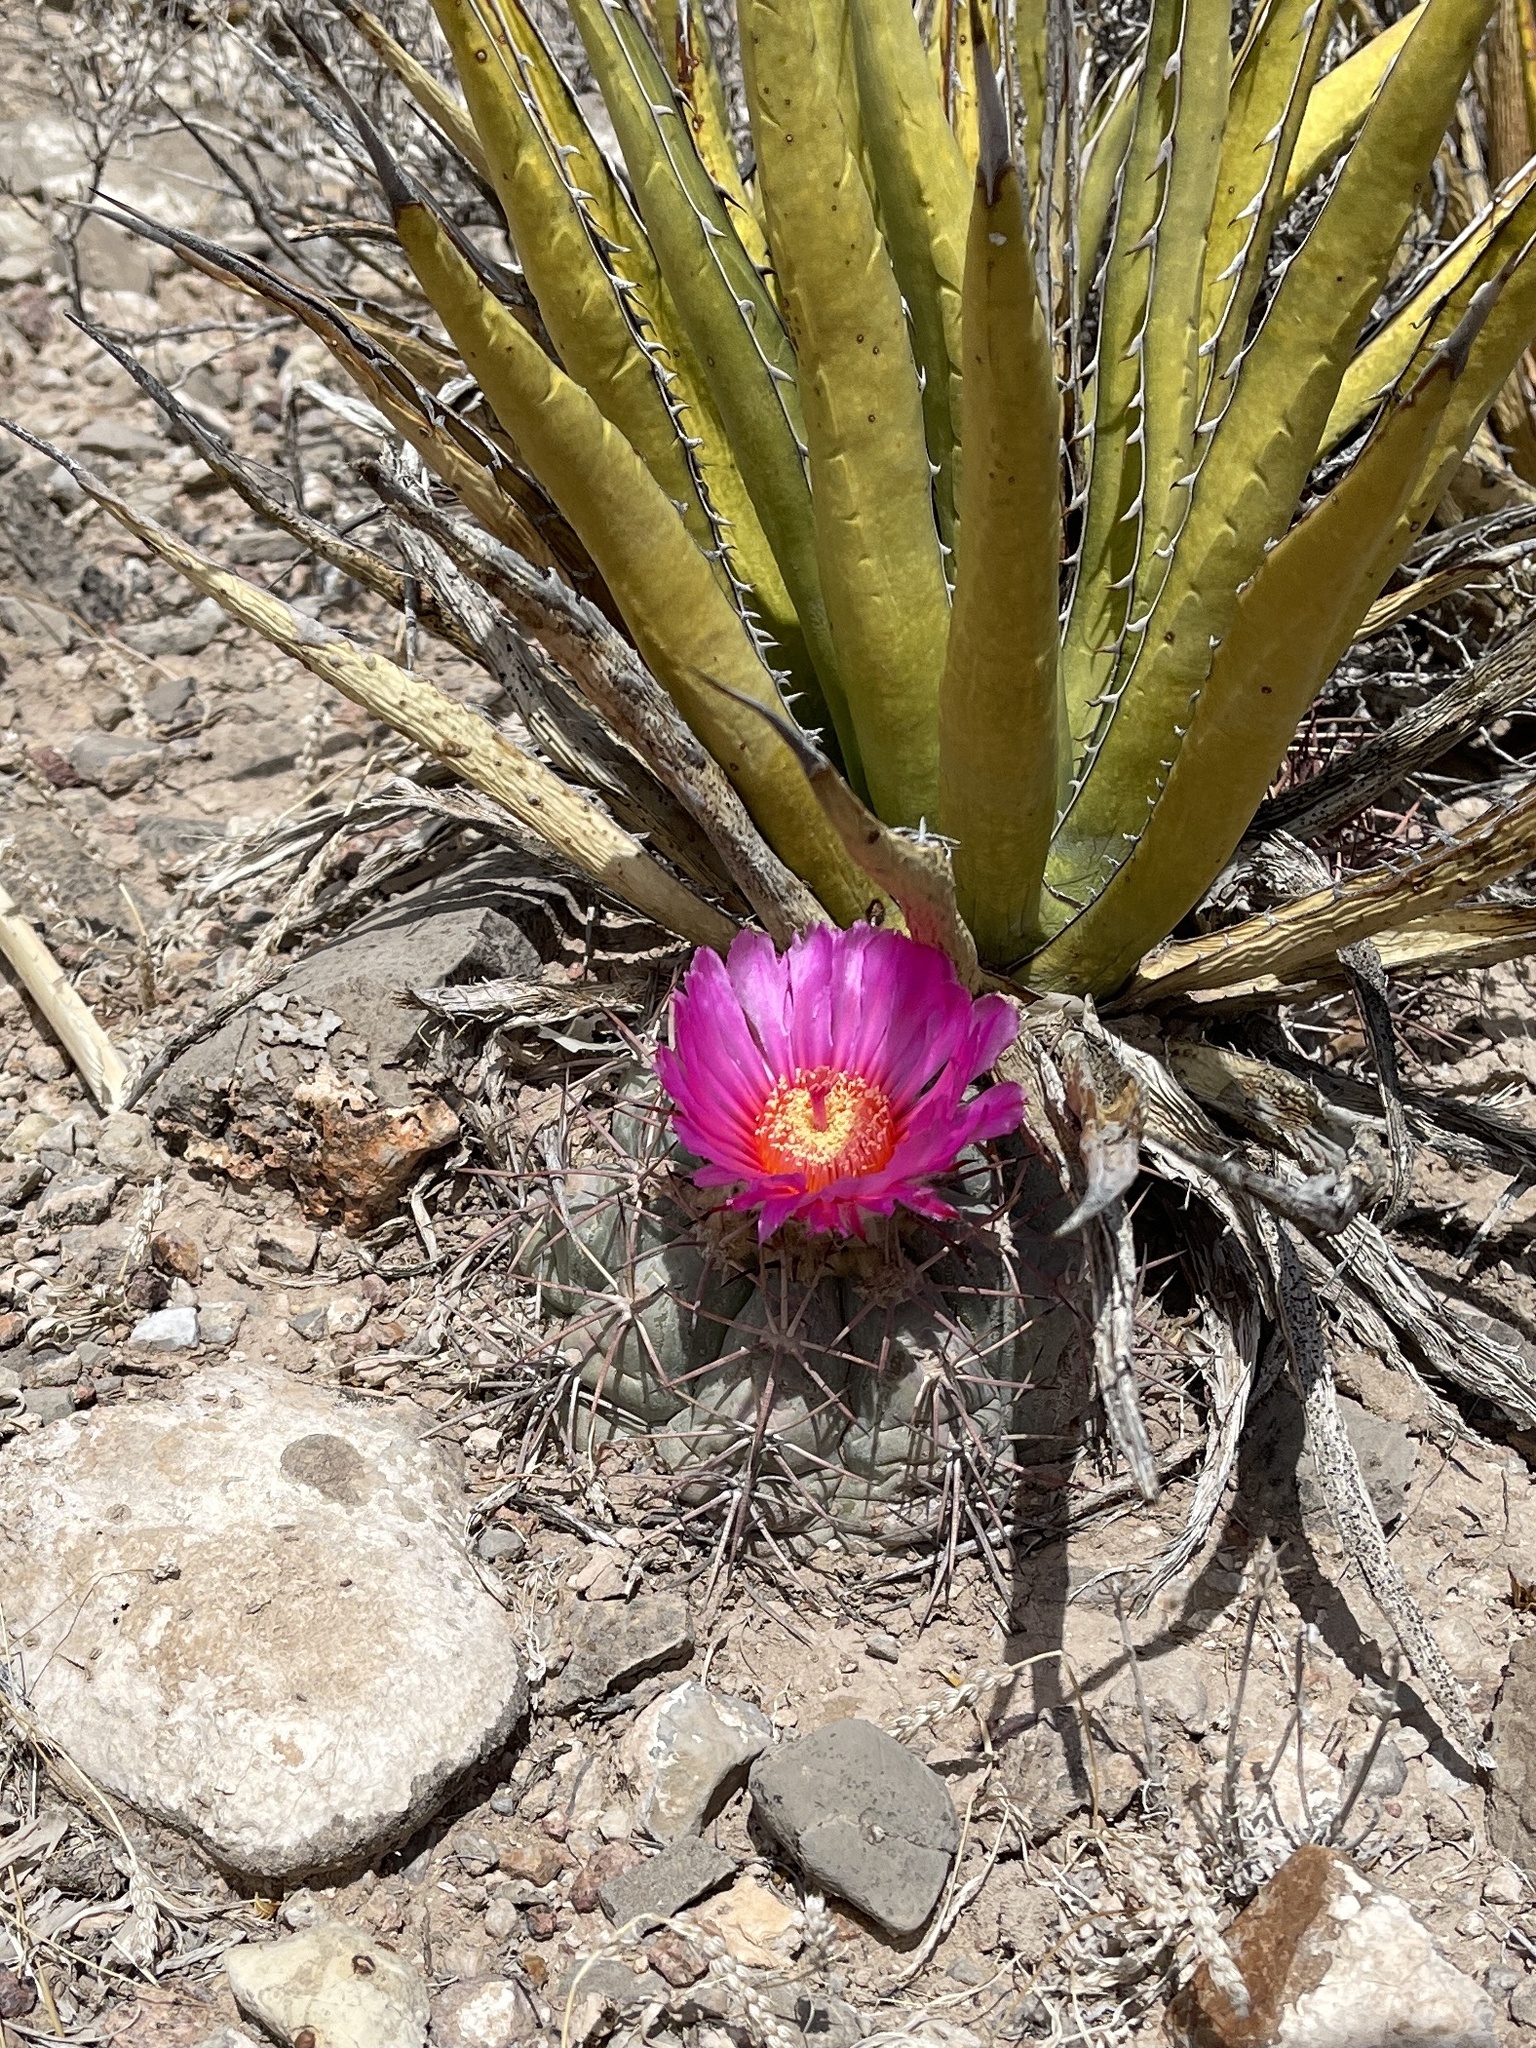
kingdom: Plantae
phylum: Tracheophyta
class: Magnoliopsida
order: Caryophyllales
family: Cactaceae
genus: Echinocactus
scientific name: Echinocactus horizonthalonius
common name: Devilshead
